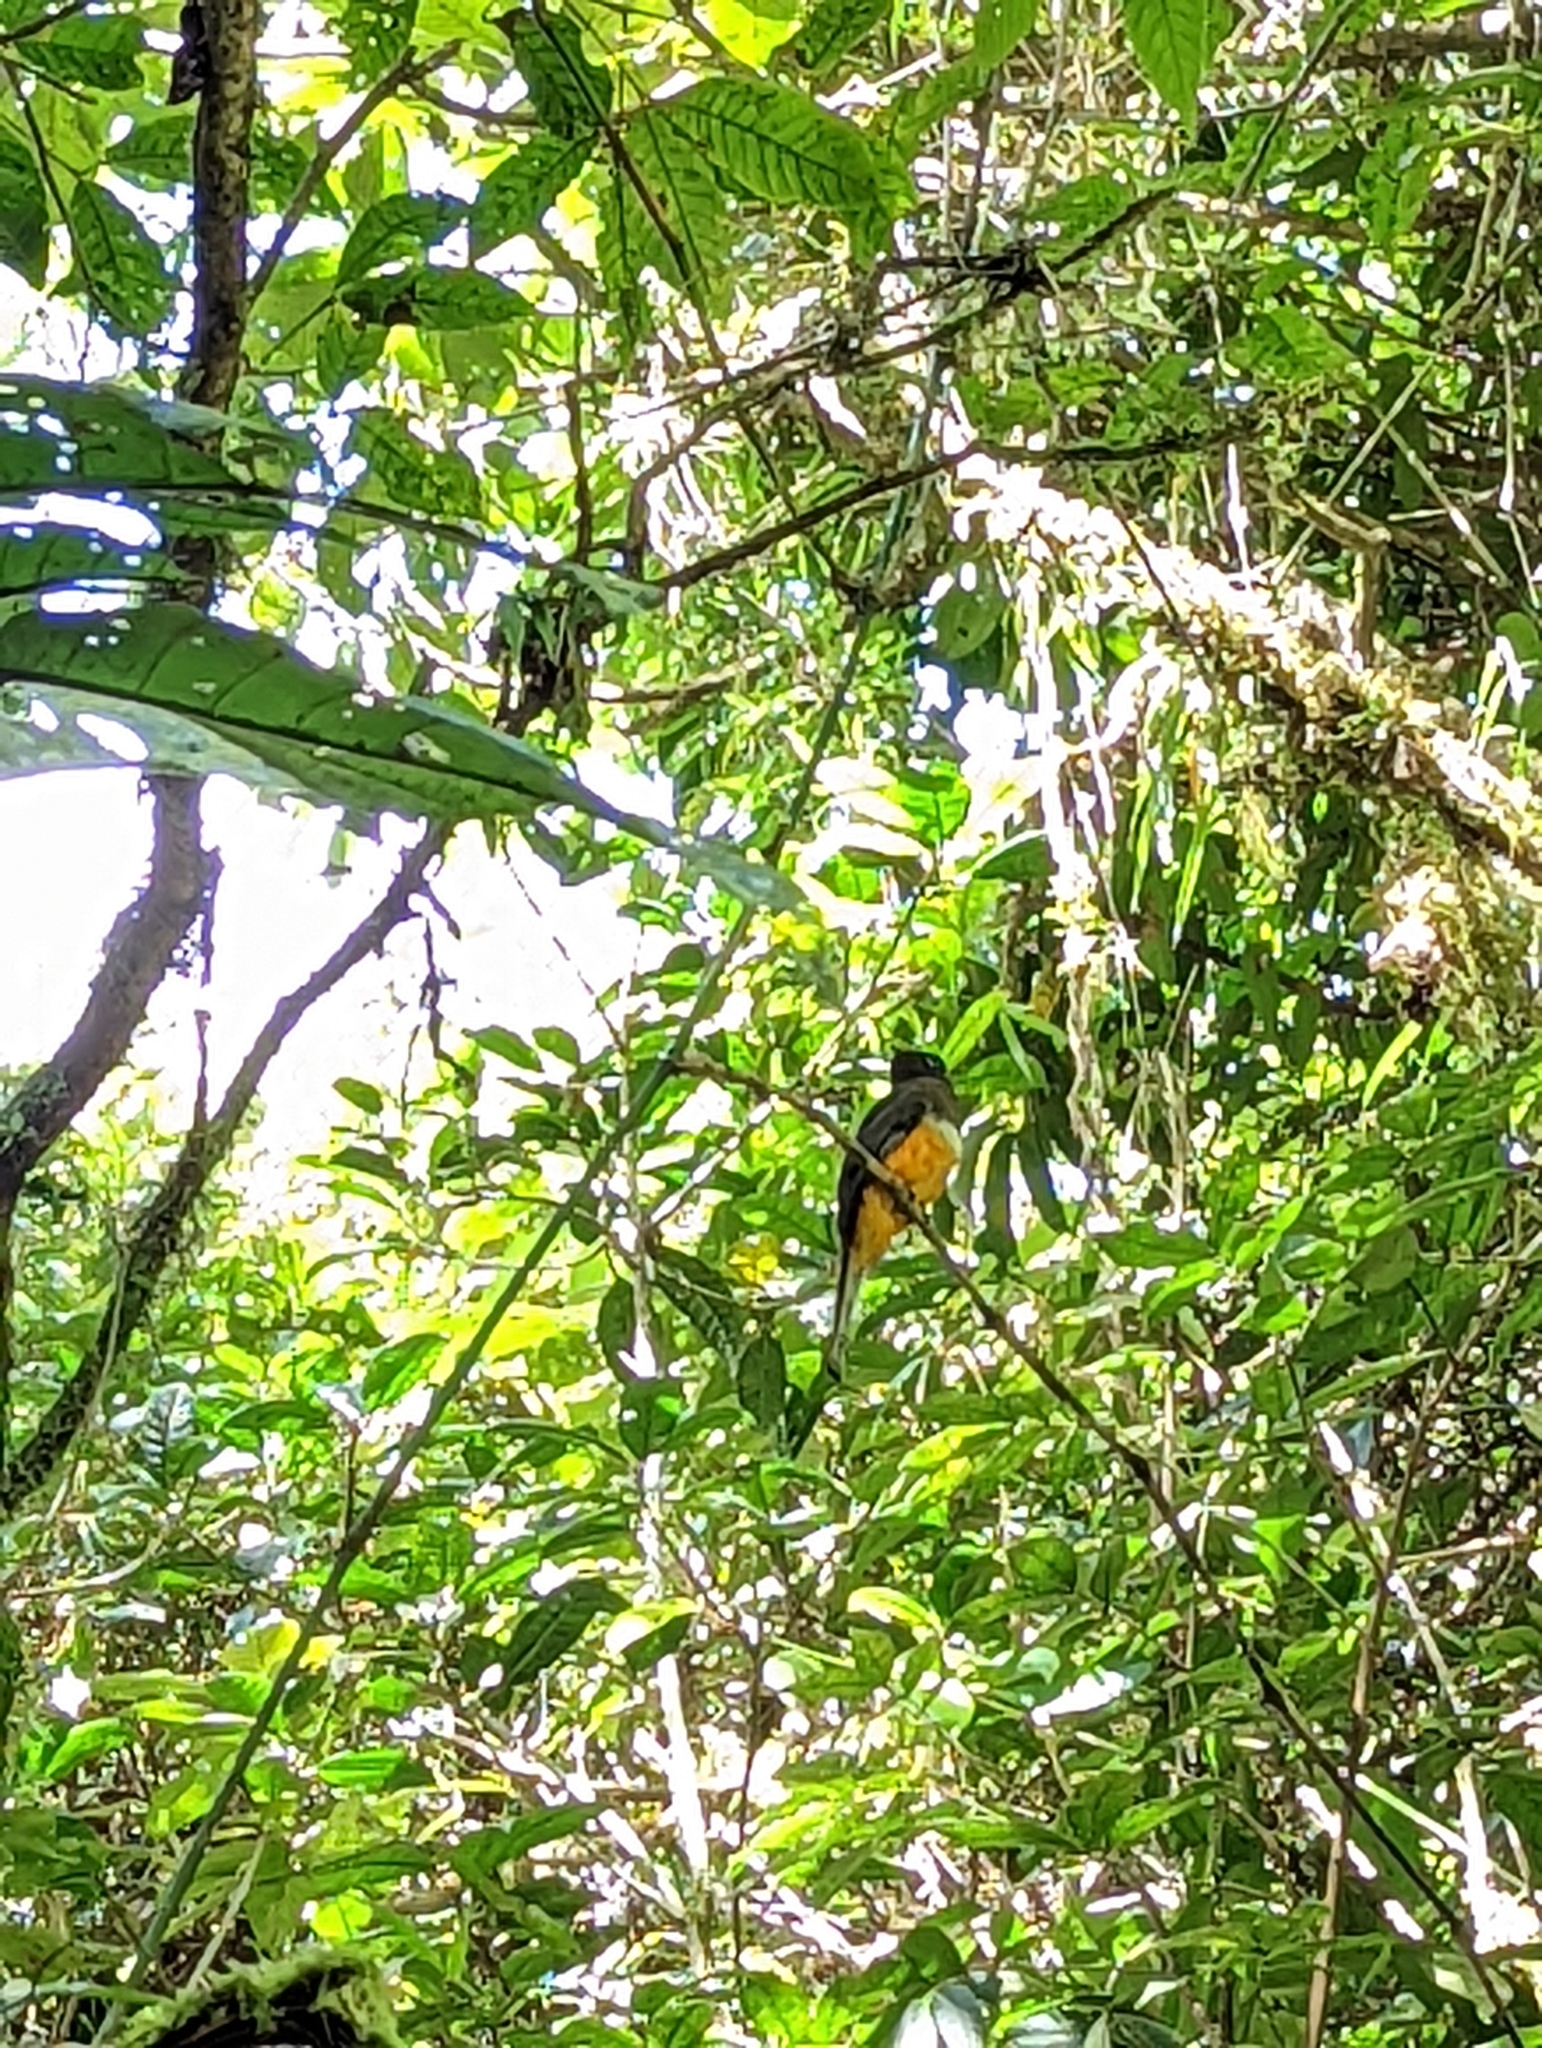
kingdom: Animalia
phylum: Chordata
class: Aves
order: Trogoniformes
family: Trogonidae
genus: Trogon
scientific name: Trogon caligatus
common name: Gartered trogon
